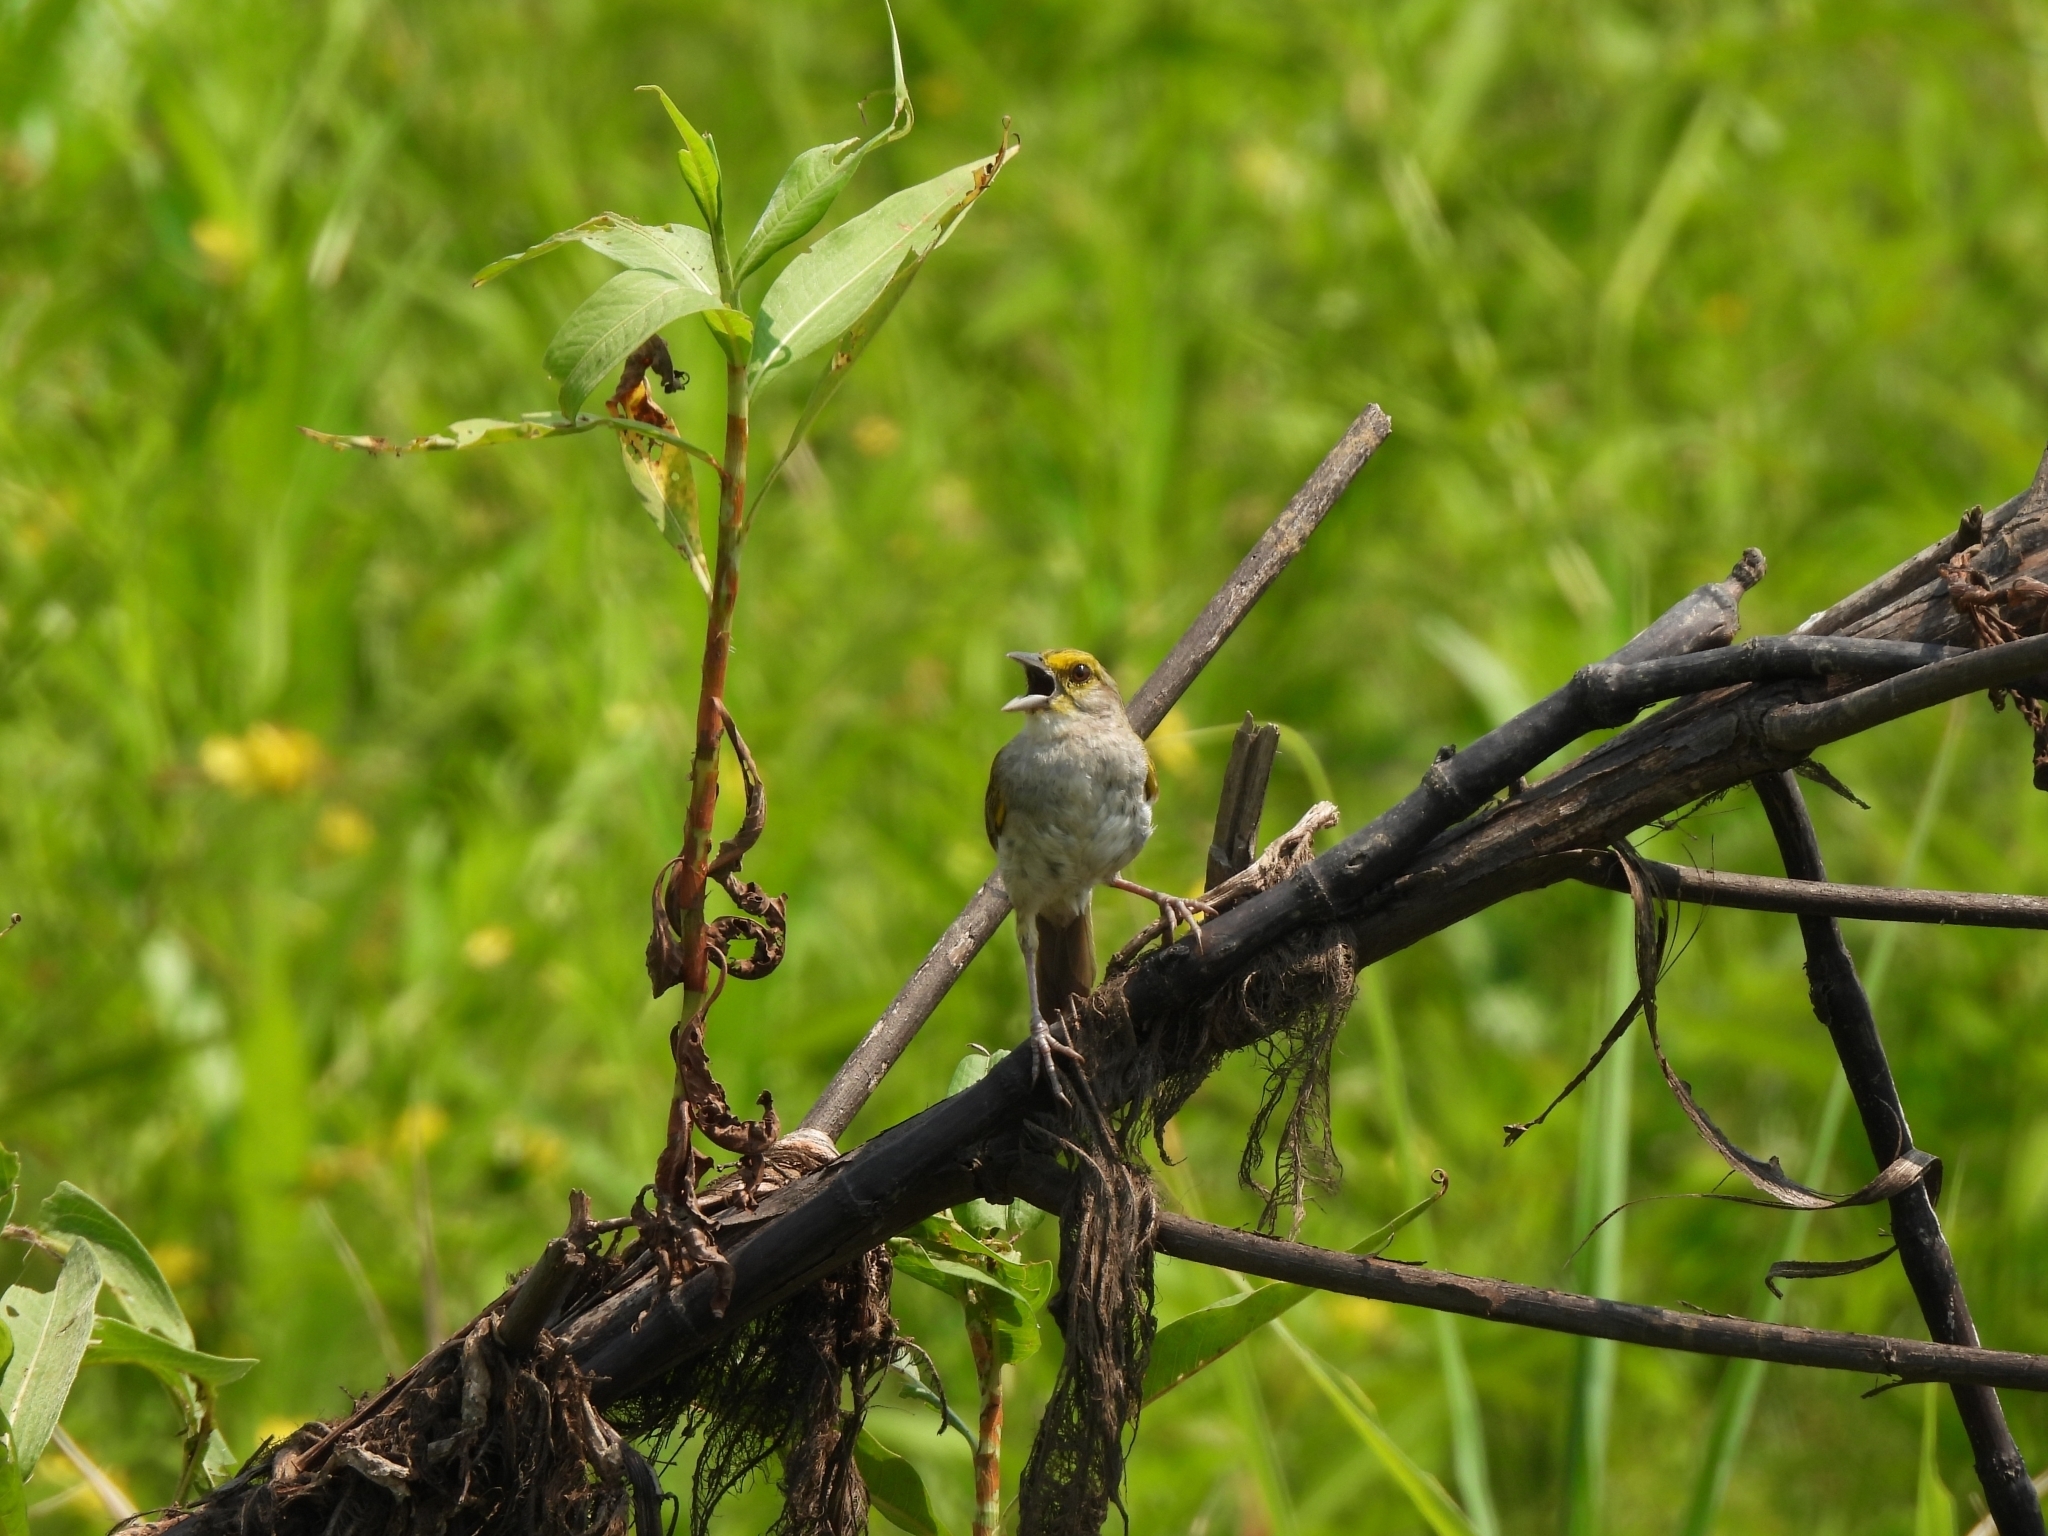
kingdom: Animalia
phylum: Chordata
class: Aves
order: Passeriformes
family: Passerellidae
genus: Ammodramus
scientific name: Ammodramus aurifrons
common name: Yellow-browed sparrow
